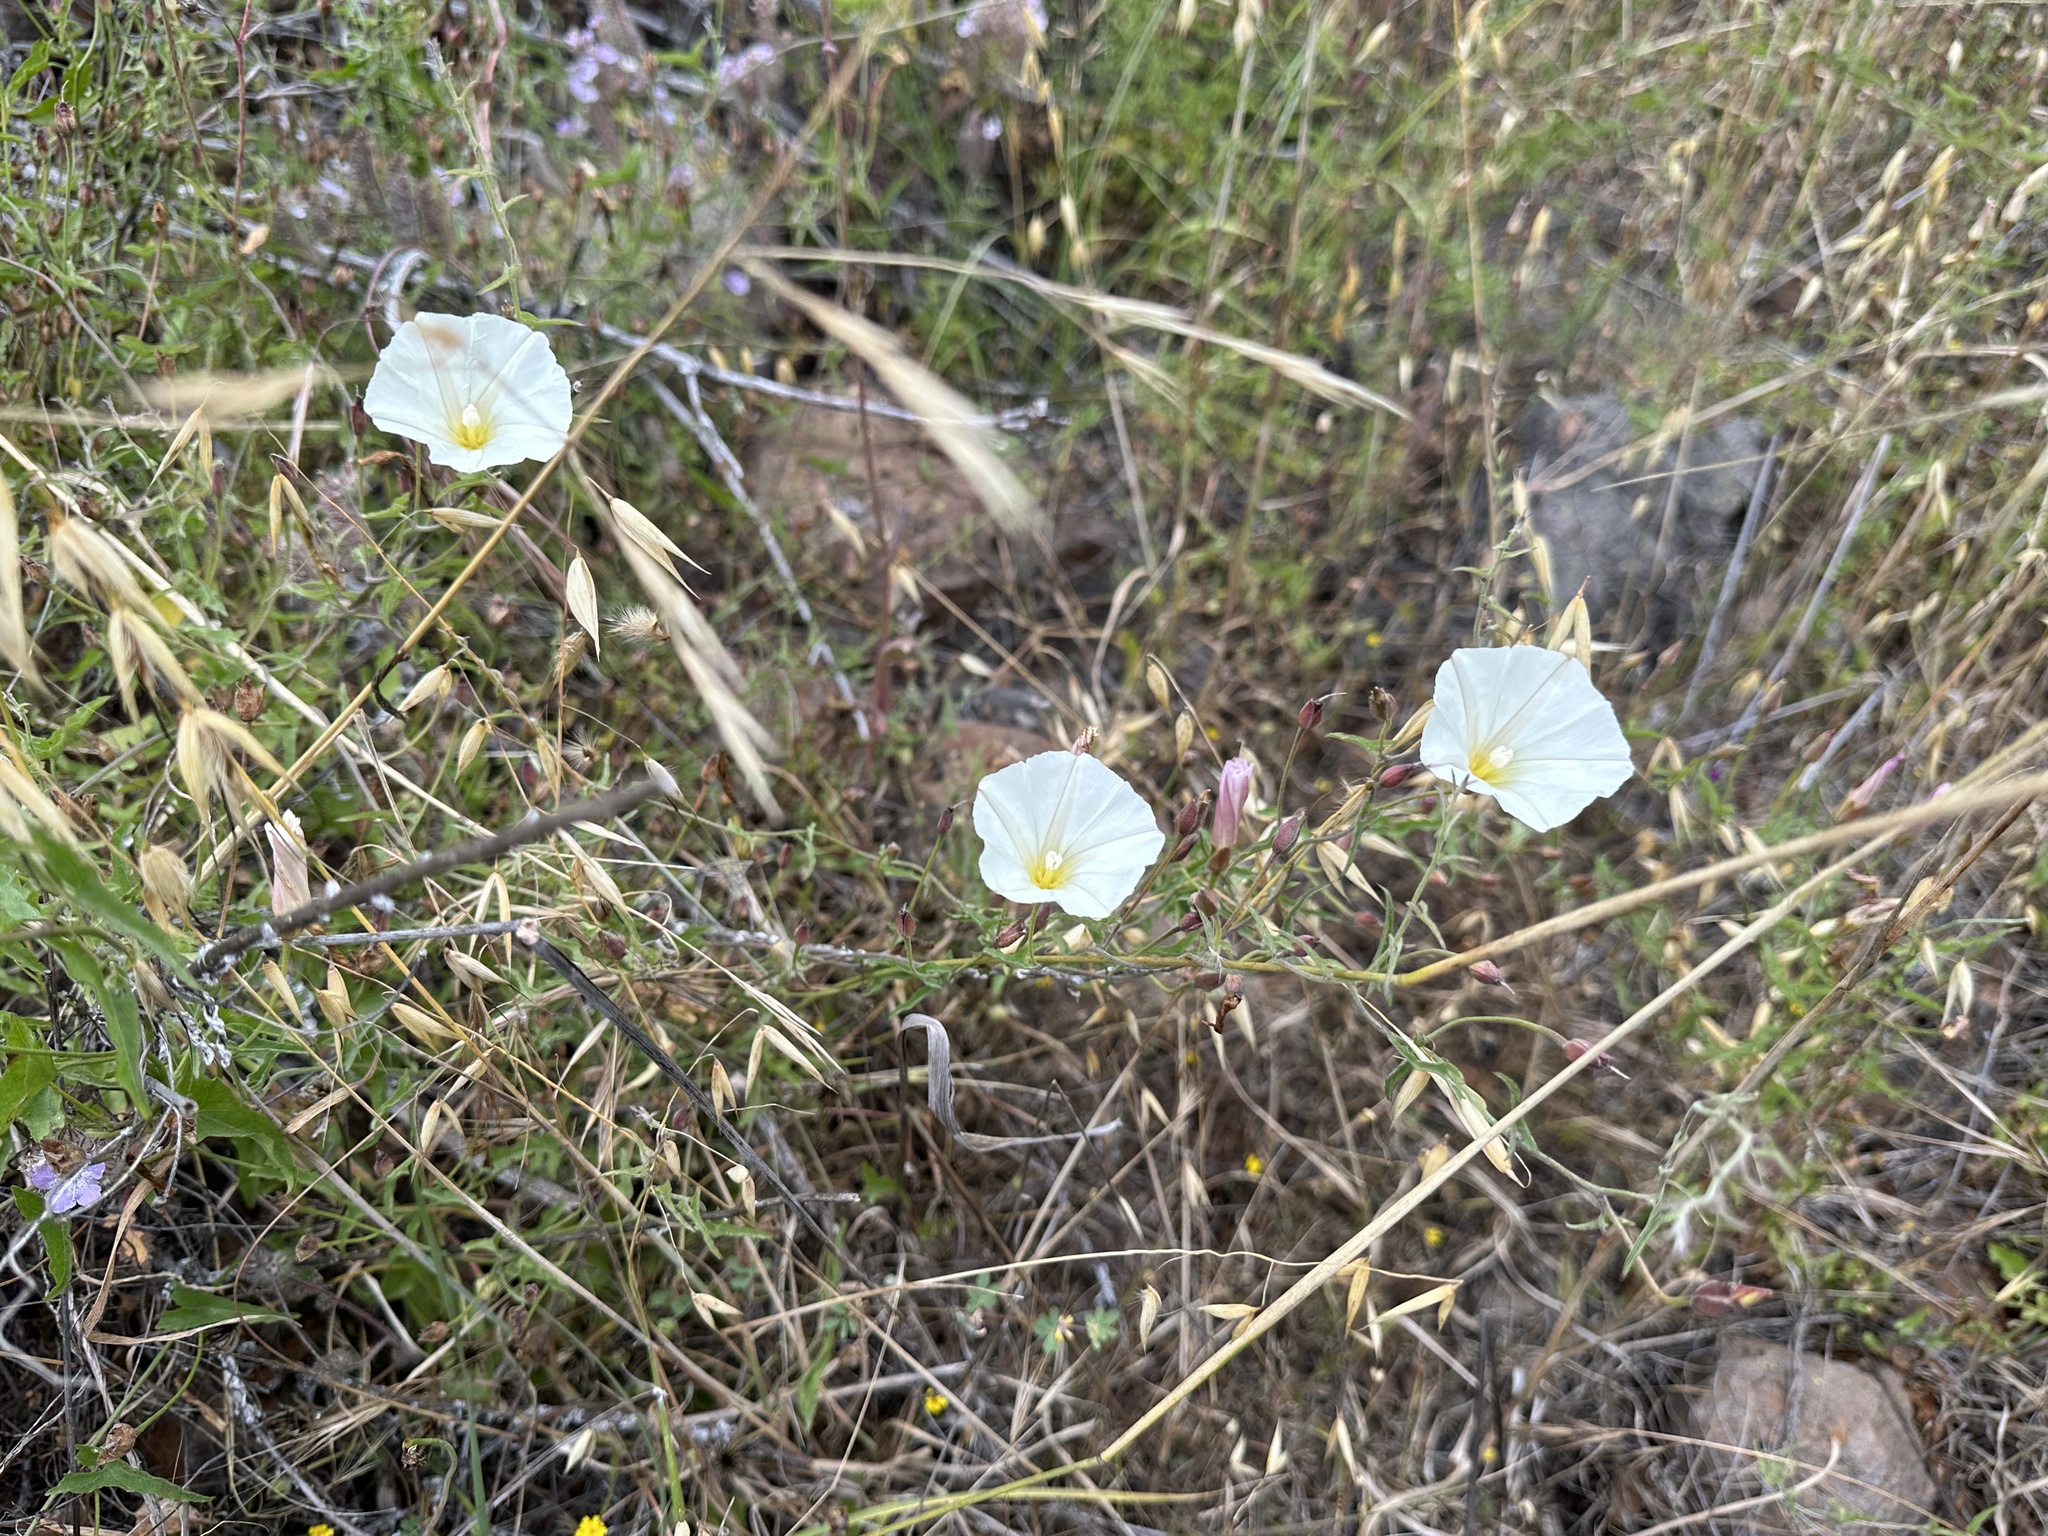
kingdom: Plantae
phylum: Tracheophyta
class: Magnoliopsida
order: Solanales
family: Convolvulaceae
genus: Calystegia
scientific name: Calystegia macrostegia
